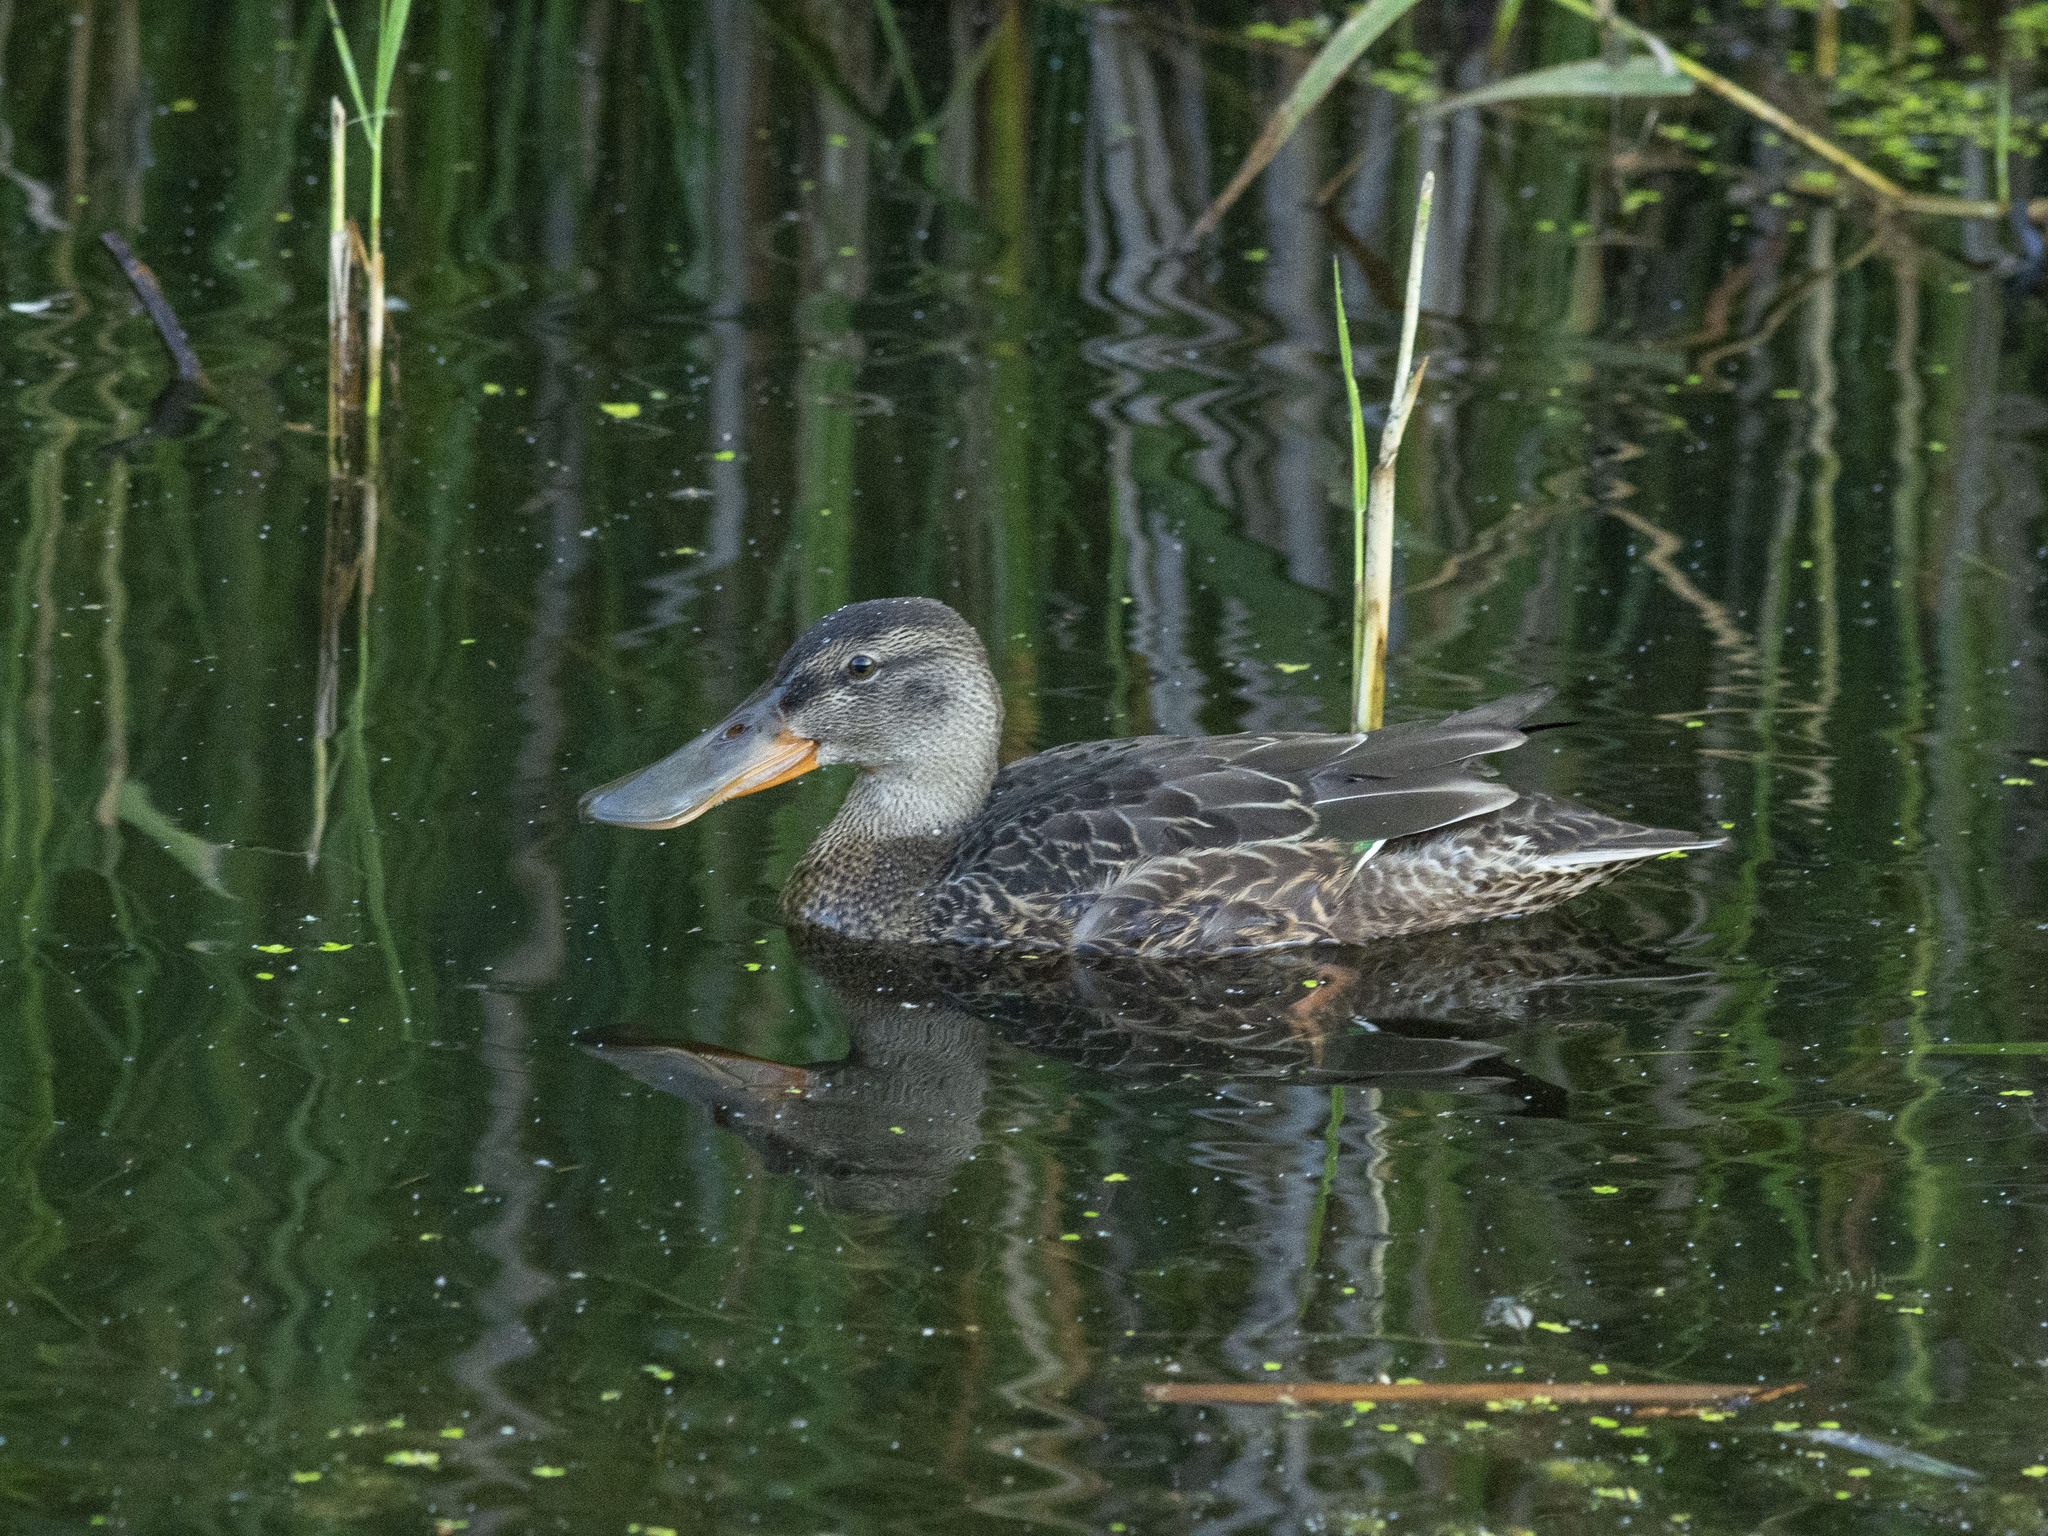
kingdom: Animalia
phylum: Chordata
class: Aves
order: Anseriformes
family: Anatidae
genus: Spatula
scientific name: Spatula clypeata
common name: Northern shoveler
